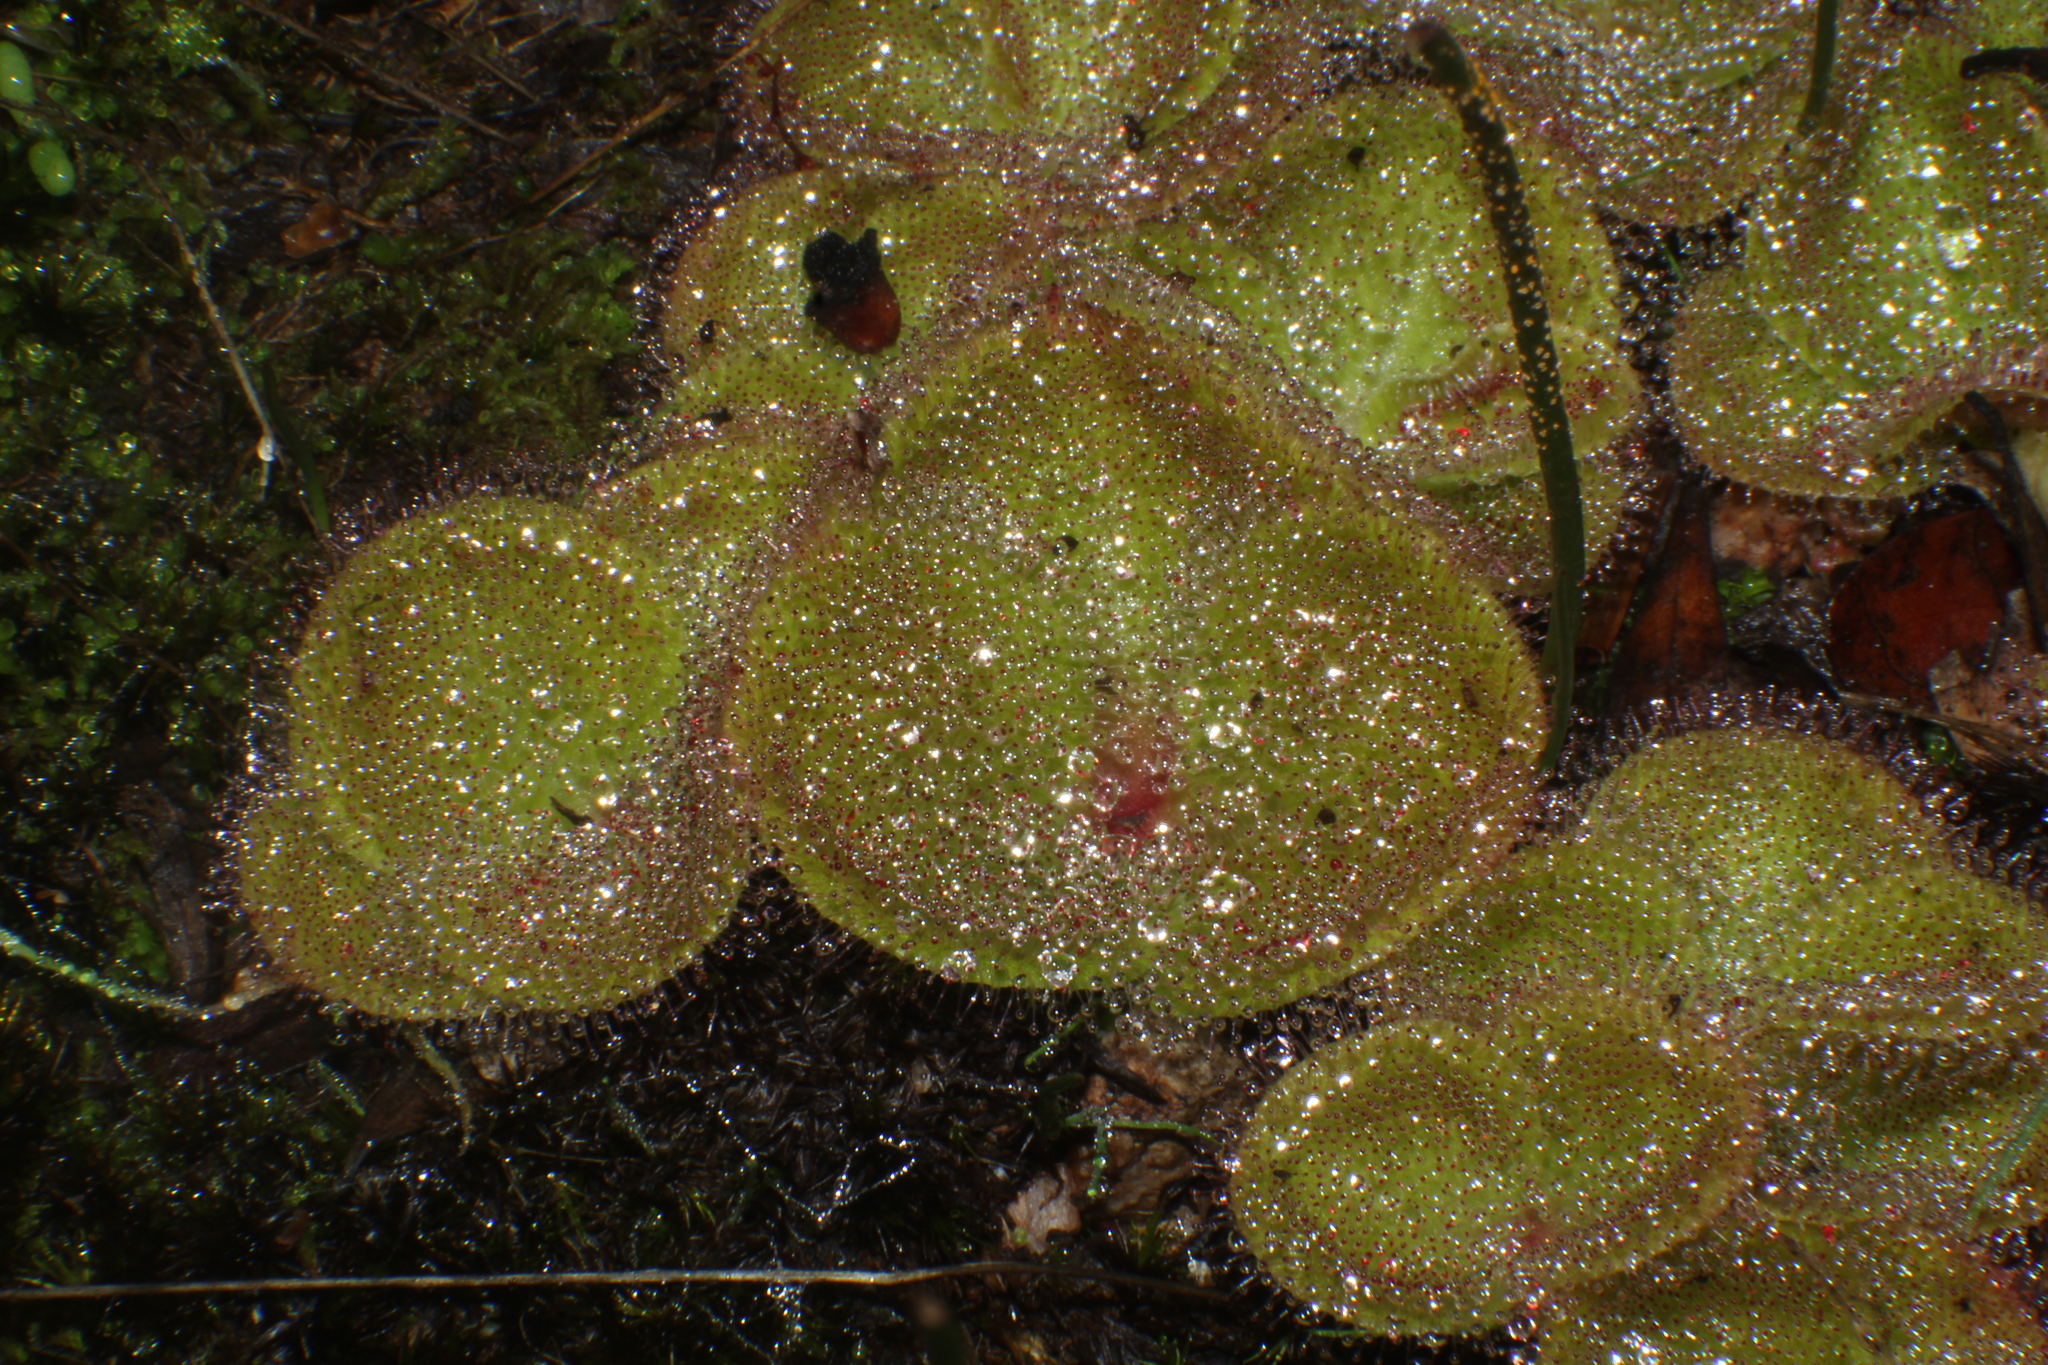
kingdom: Plantae
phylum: Tracheophyta
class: Magnoliopsida
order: Caryophyllales
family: Droseraceae
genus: Drosera
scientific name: Drosera erythrorhiza
